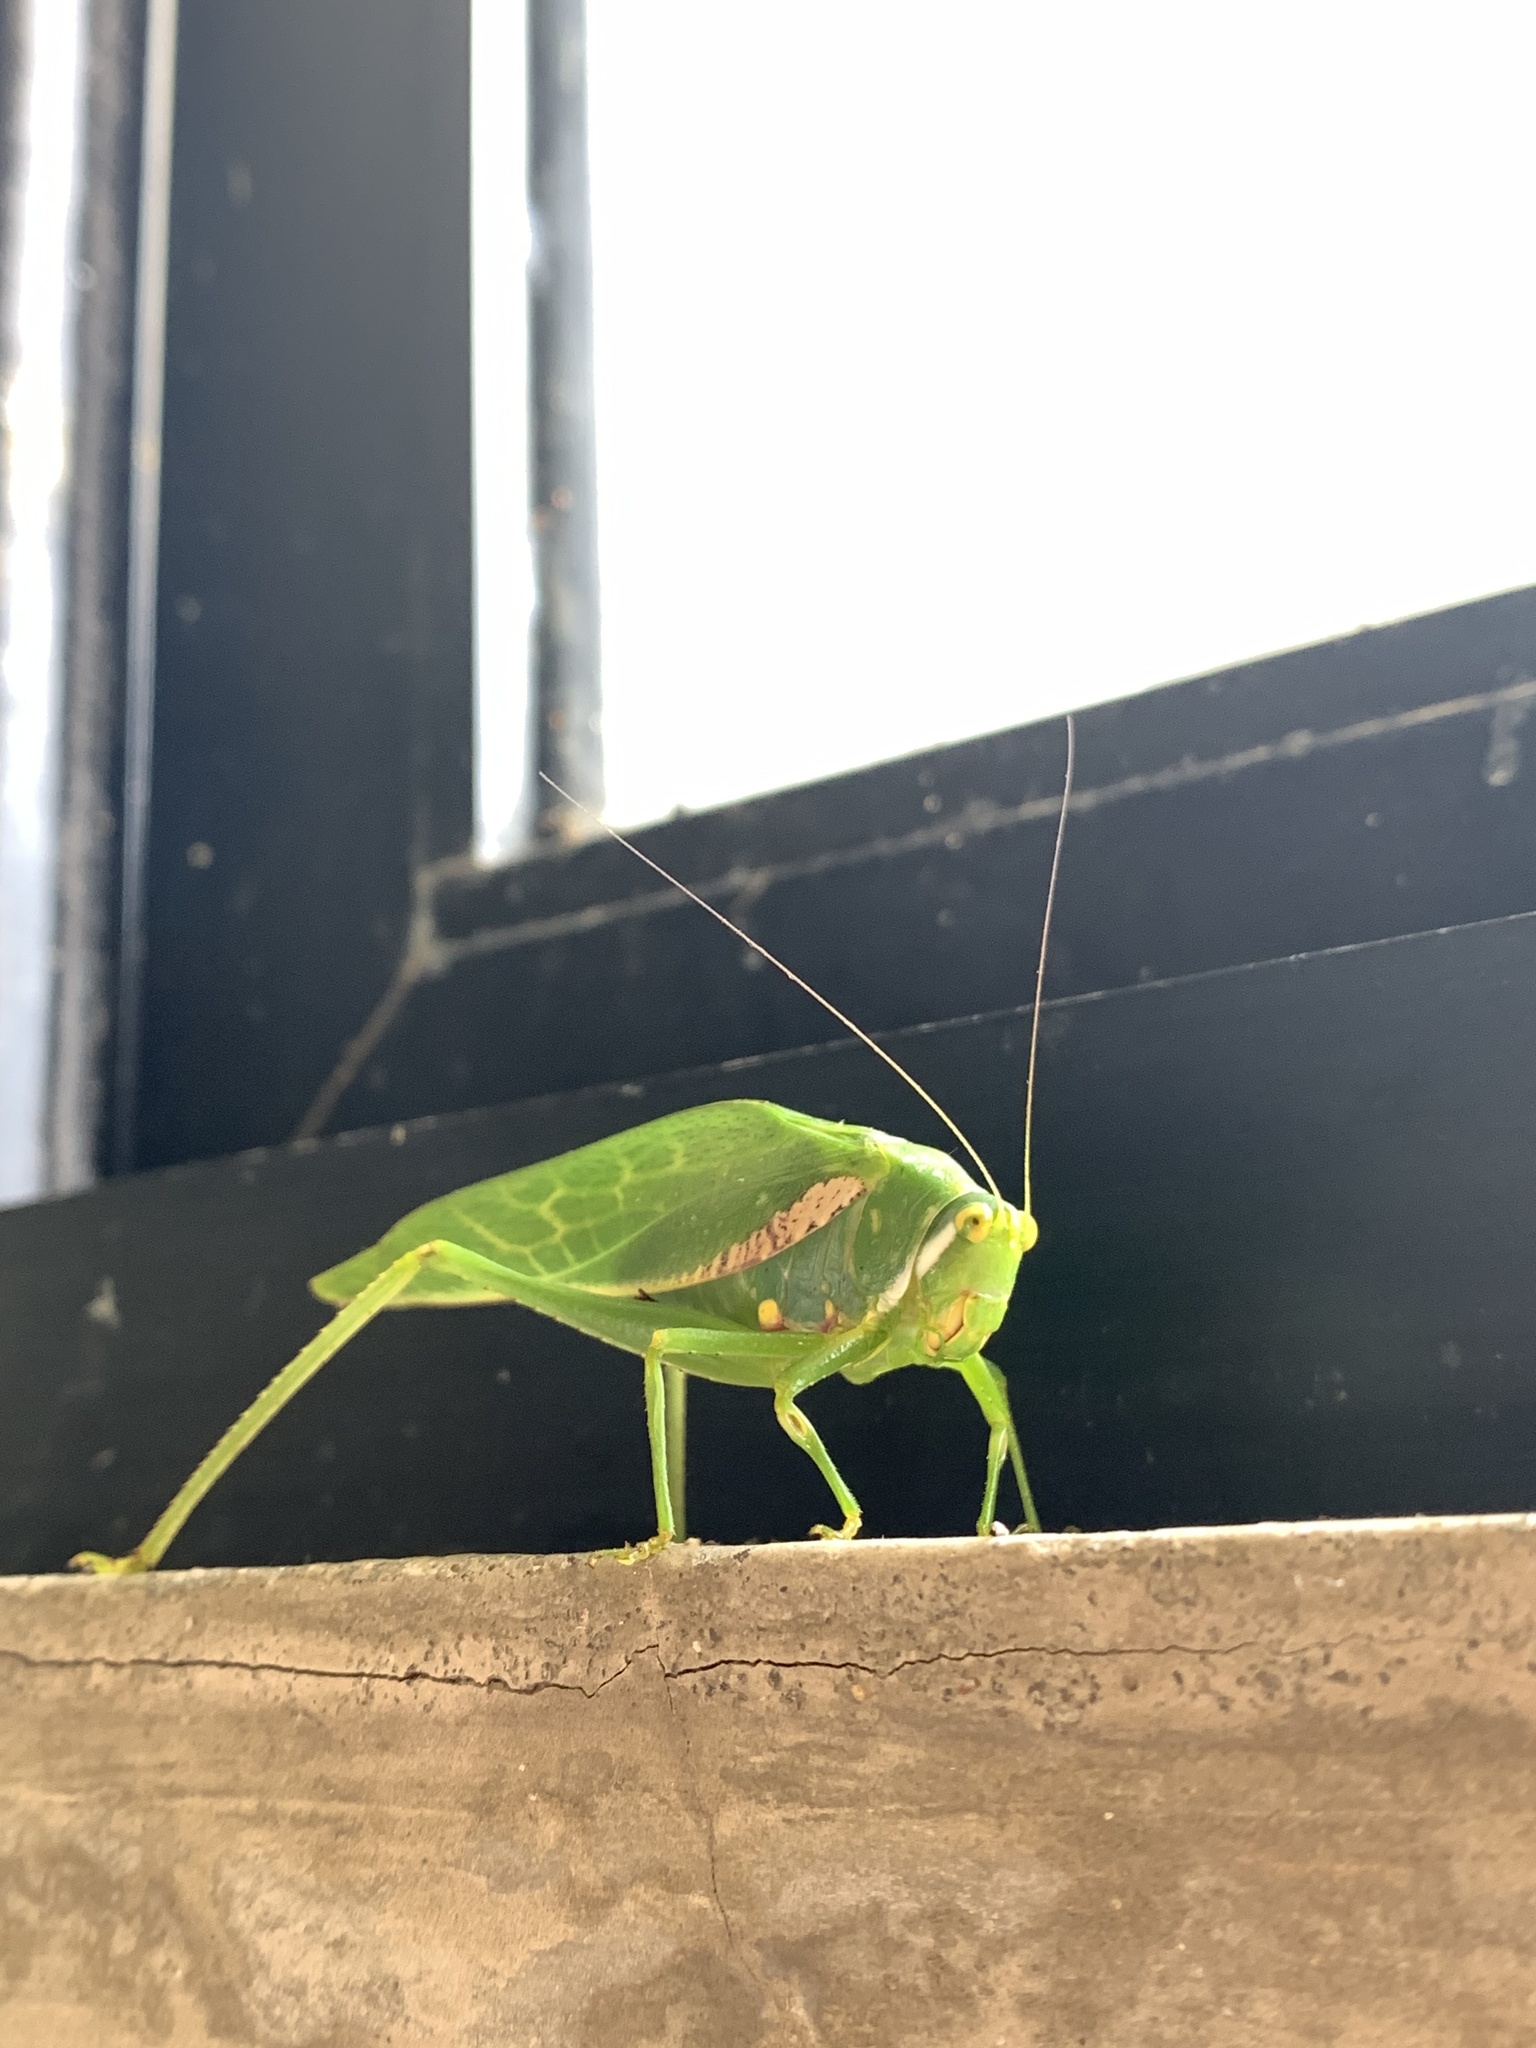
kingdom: Animalia
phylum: Arthropoda
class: Insecta
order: Orthoptera
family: Tettigoniidae
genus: Philophyllia
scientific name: Philophyllia latior
